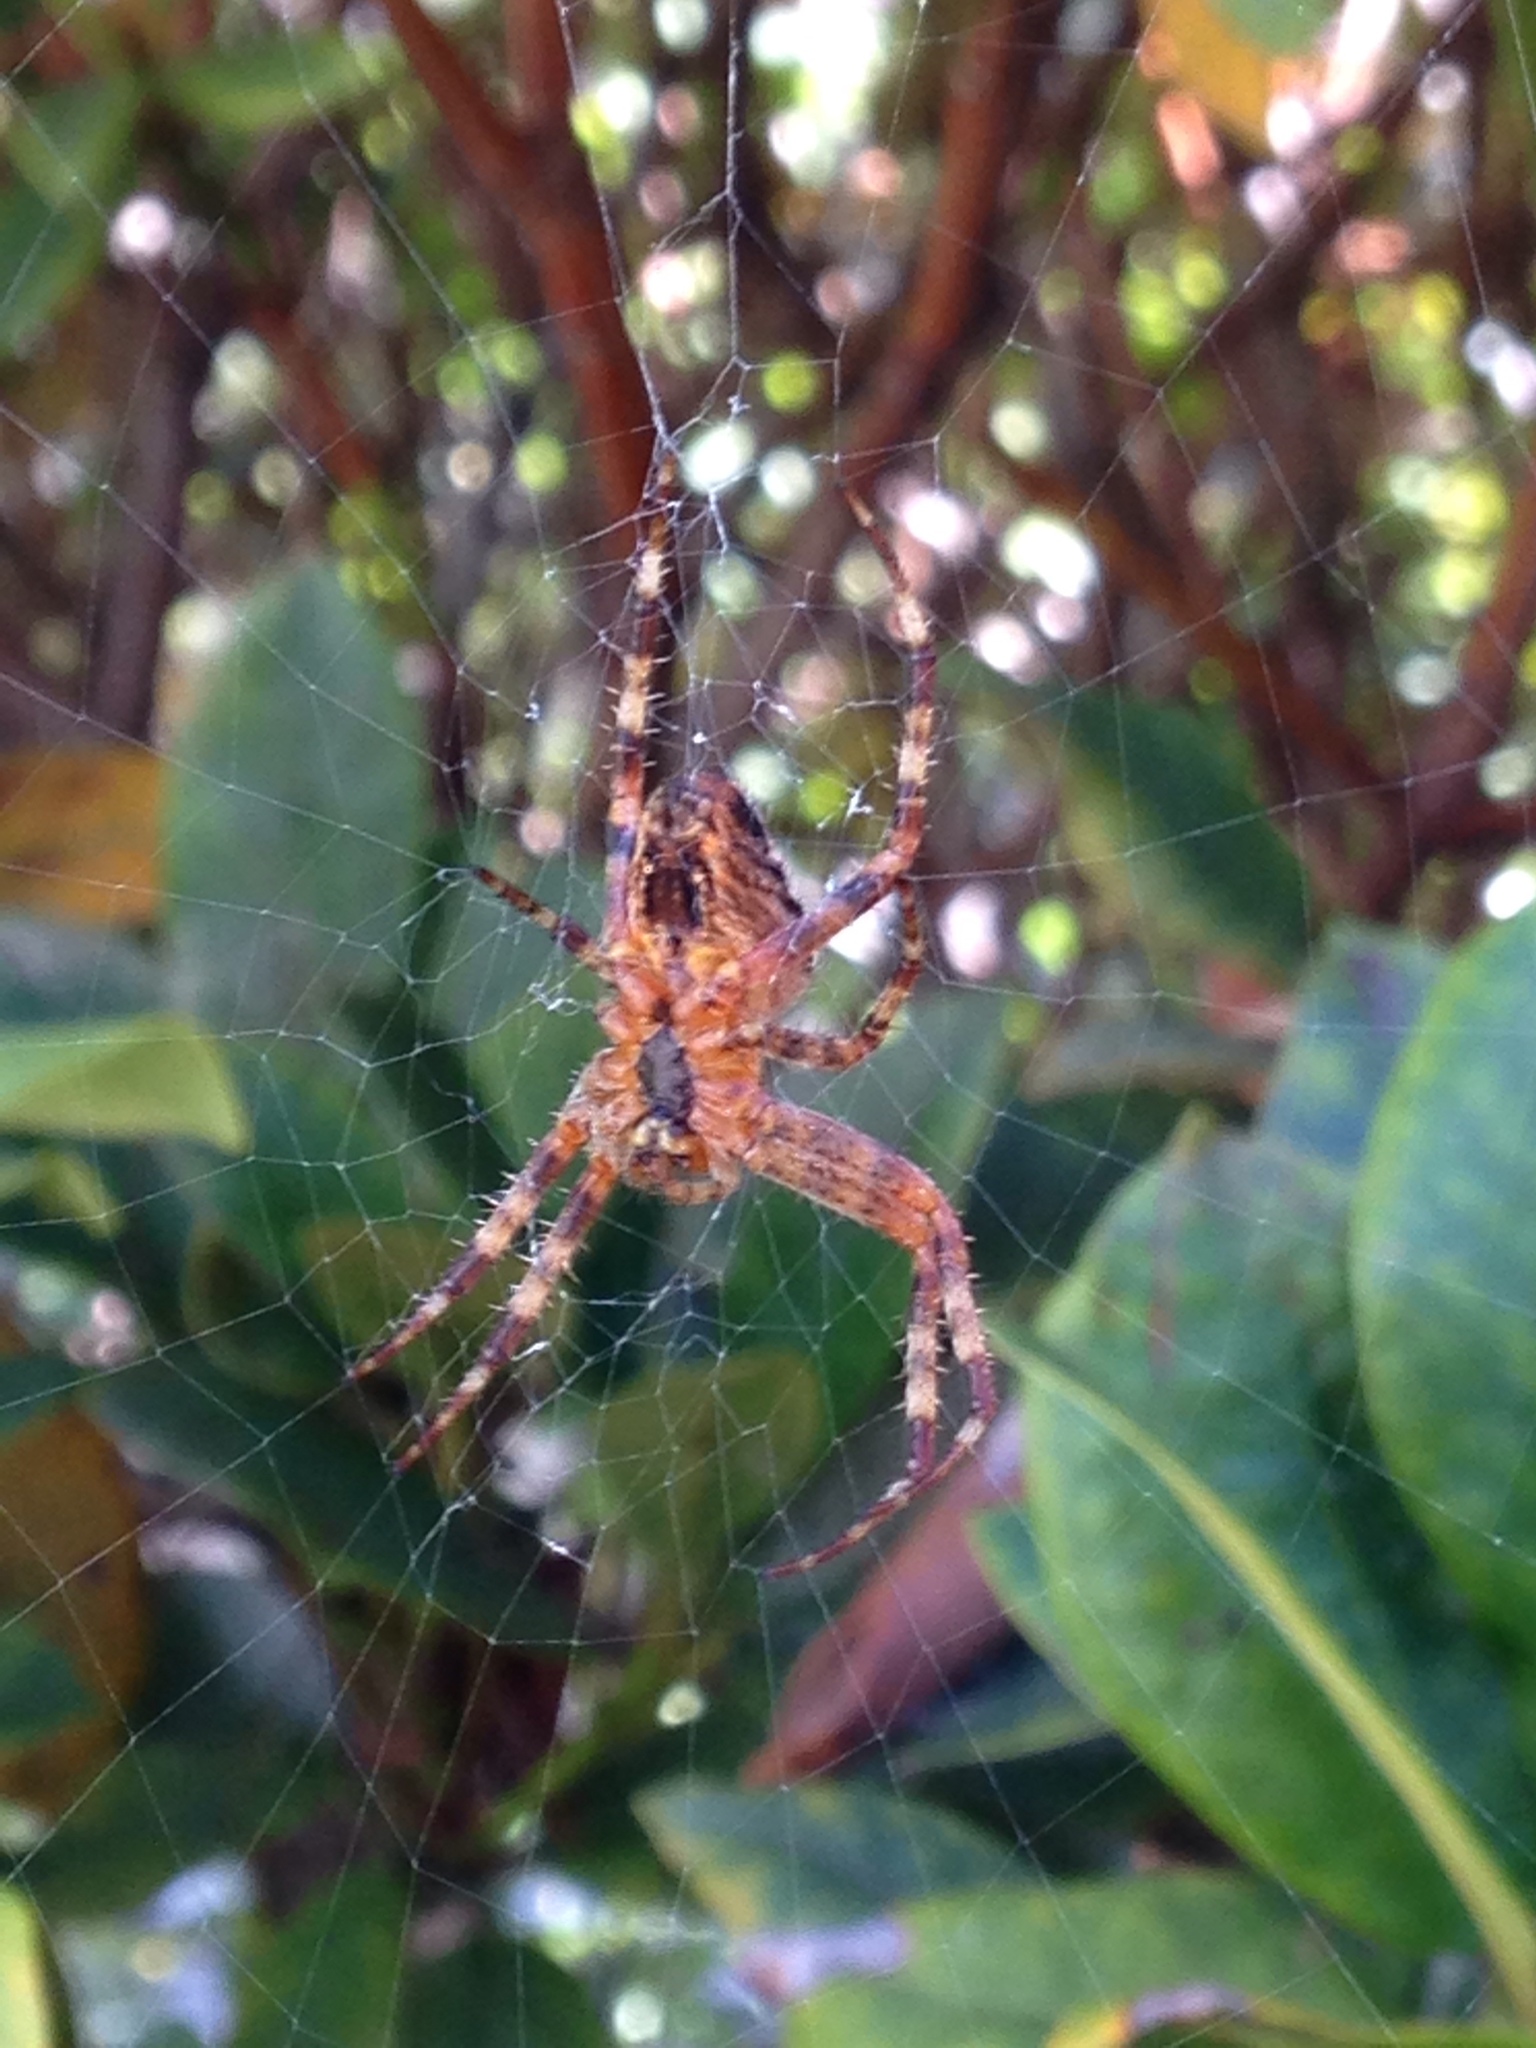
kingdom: Animalia
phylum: Arthropoda
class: Arachnida
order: Araneae
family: Araneidae
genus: Araneus
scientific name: Araneus diadematus
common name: Cross orbweaver
